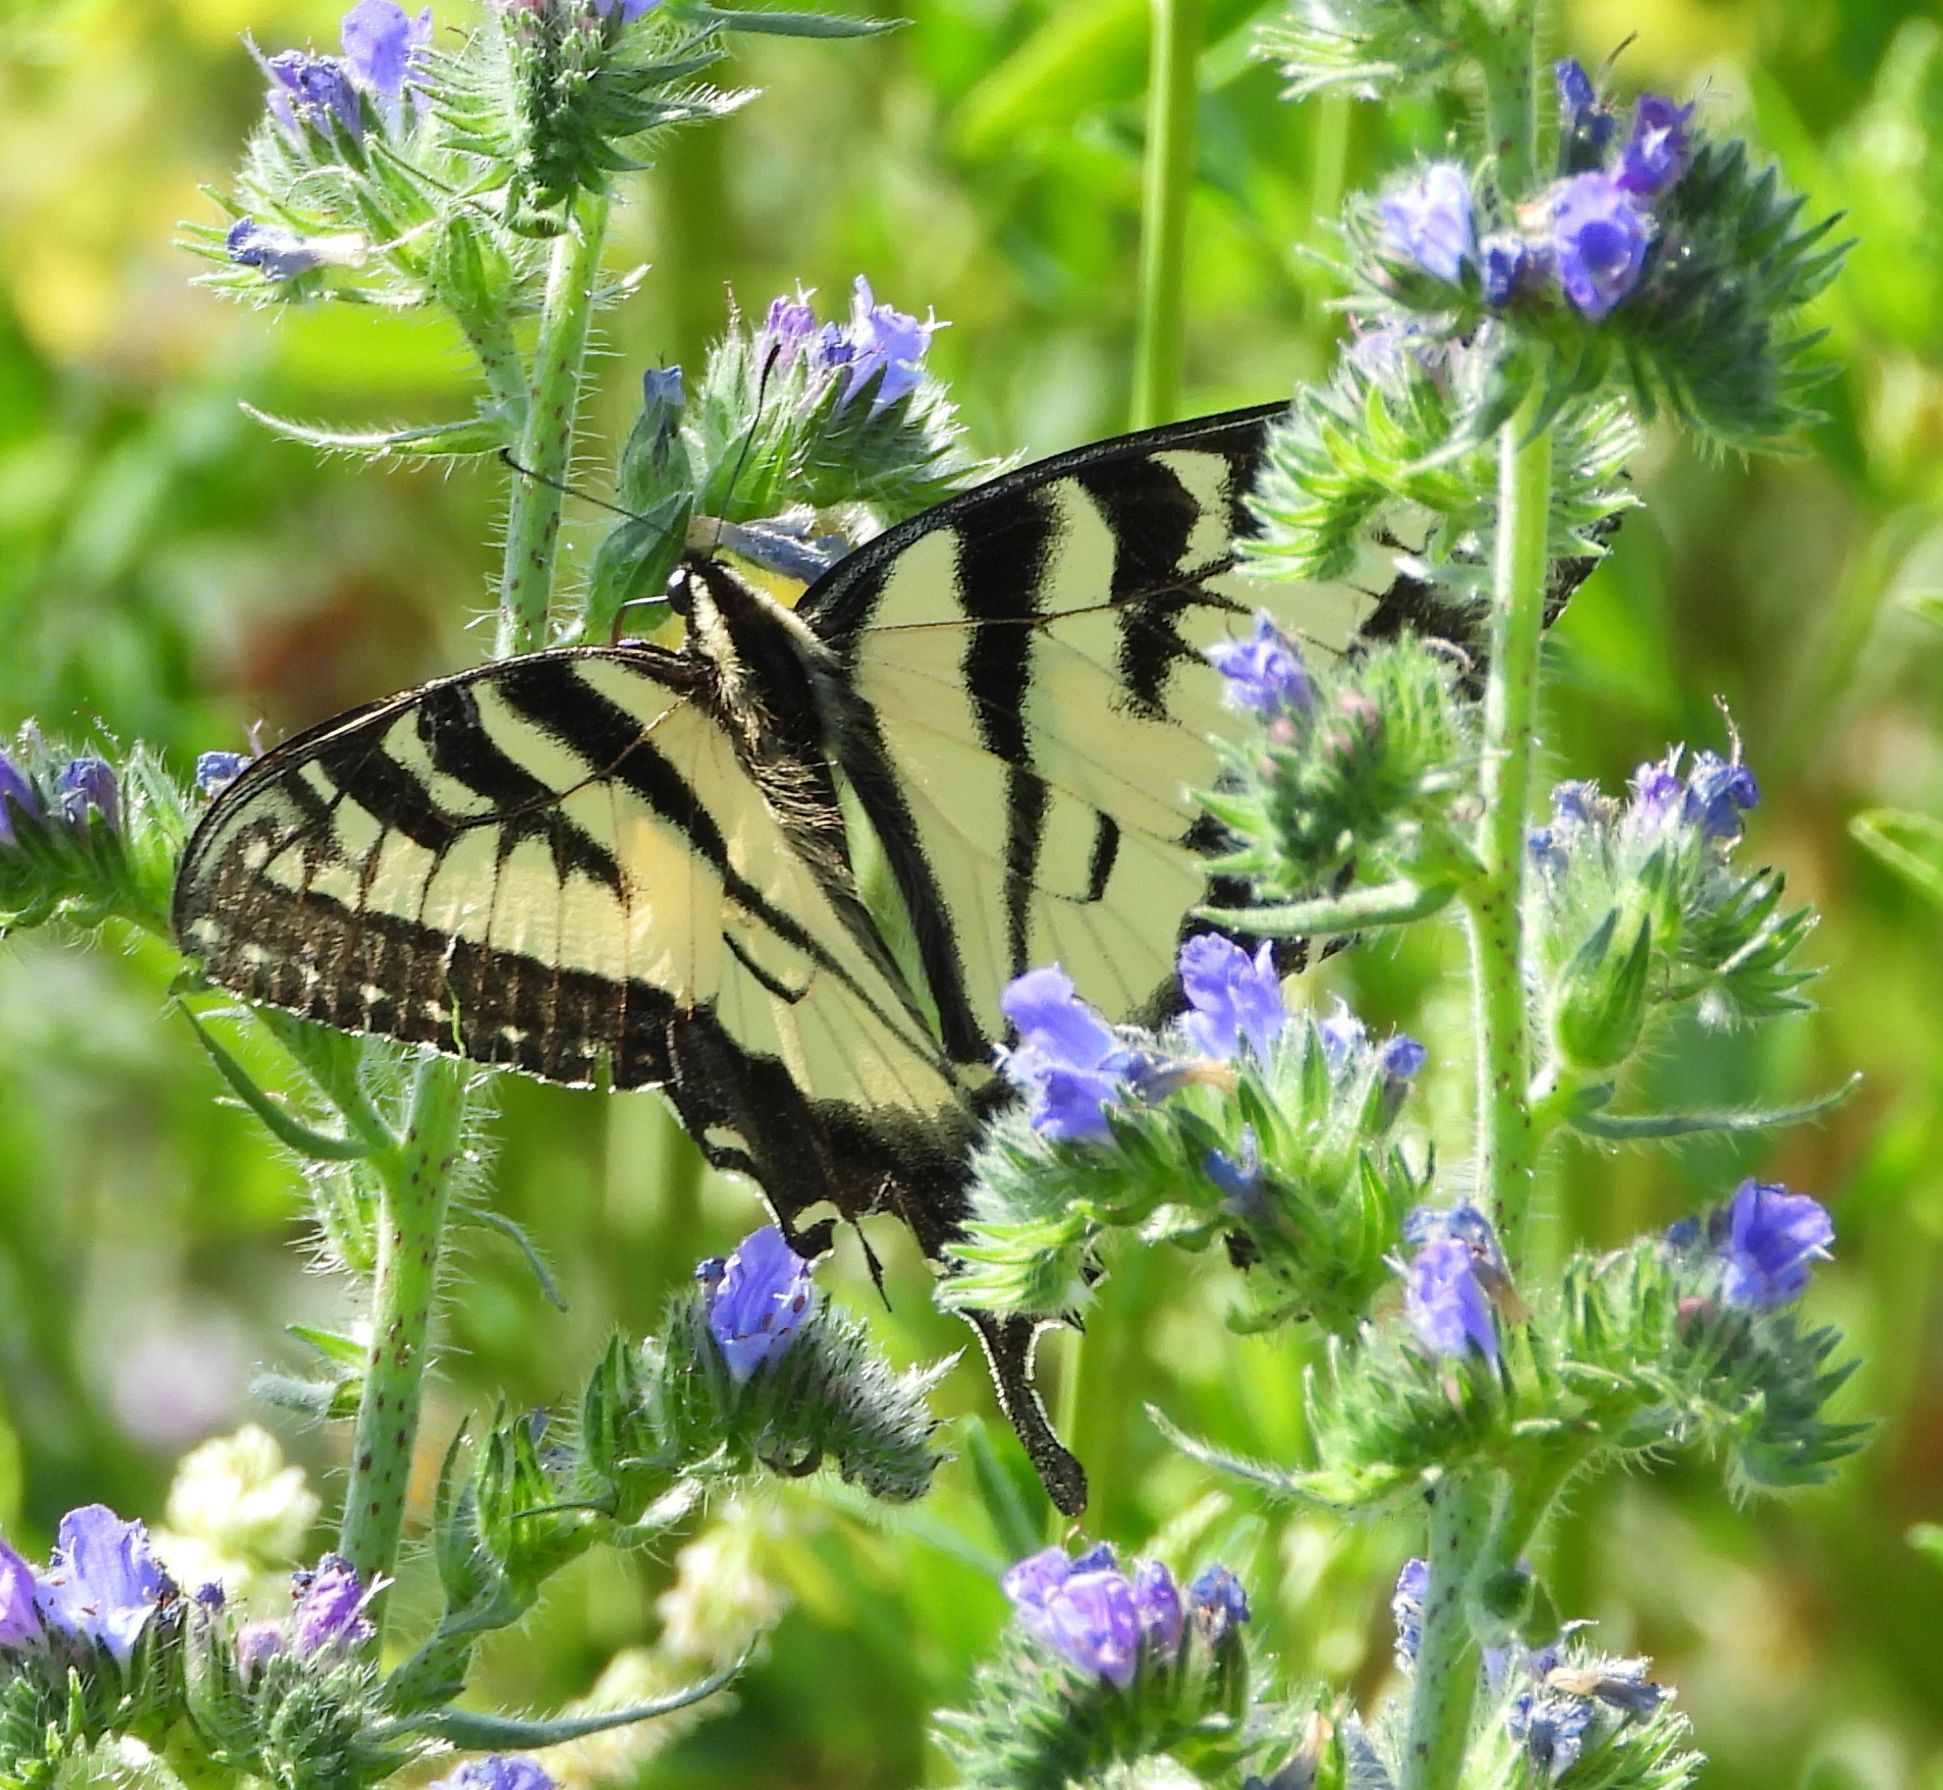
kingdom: Animalia
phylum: Arthropoda
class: Insecta
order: Lepidoptera
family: Papilionidae
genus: Papilio
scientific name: Papilio
